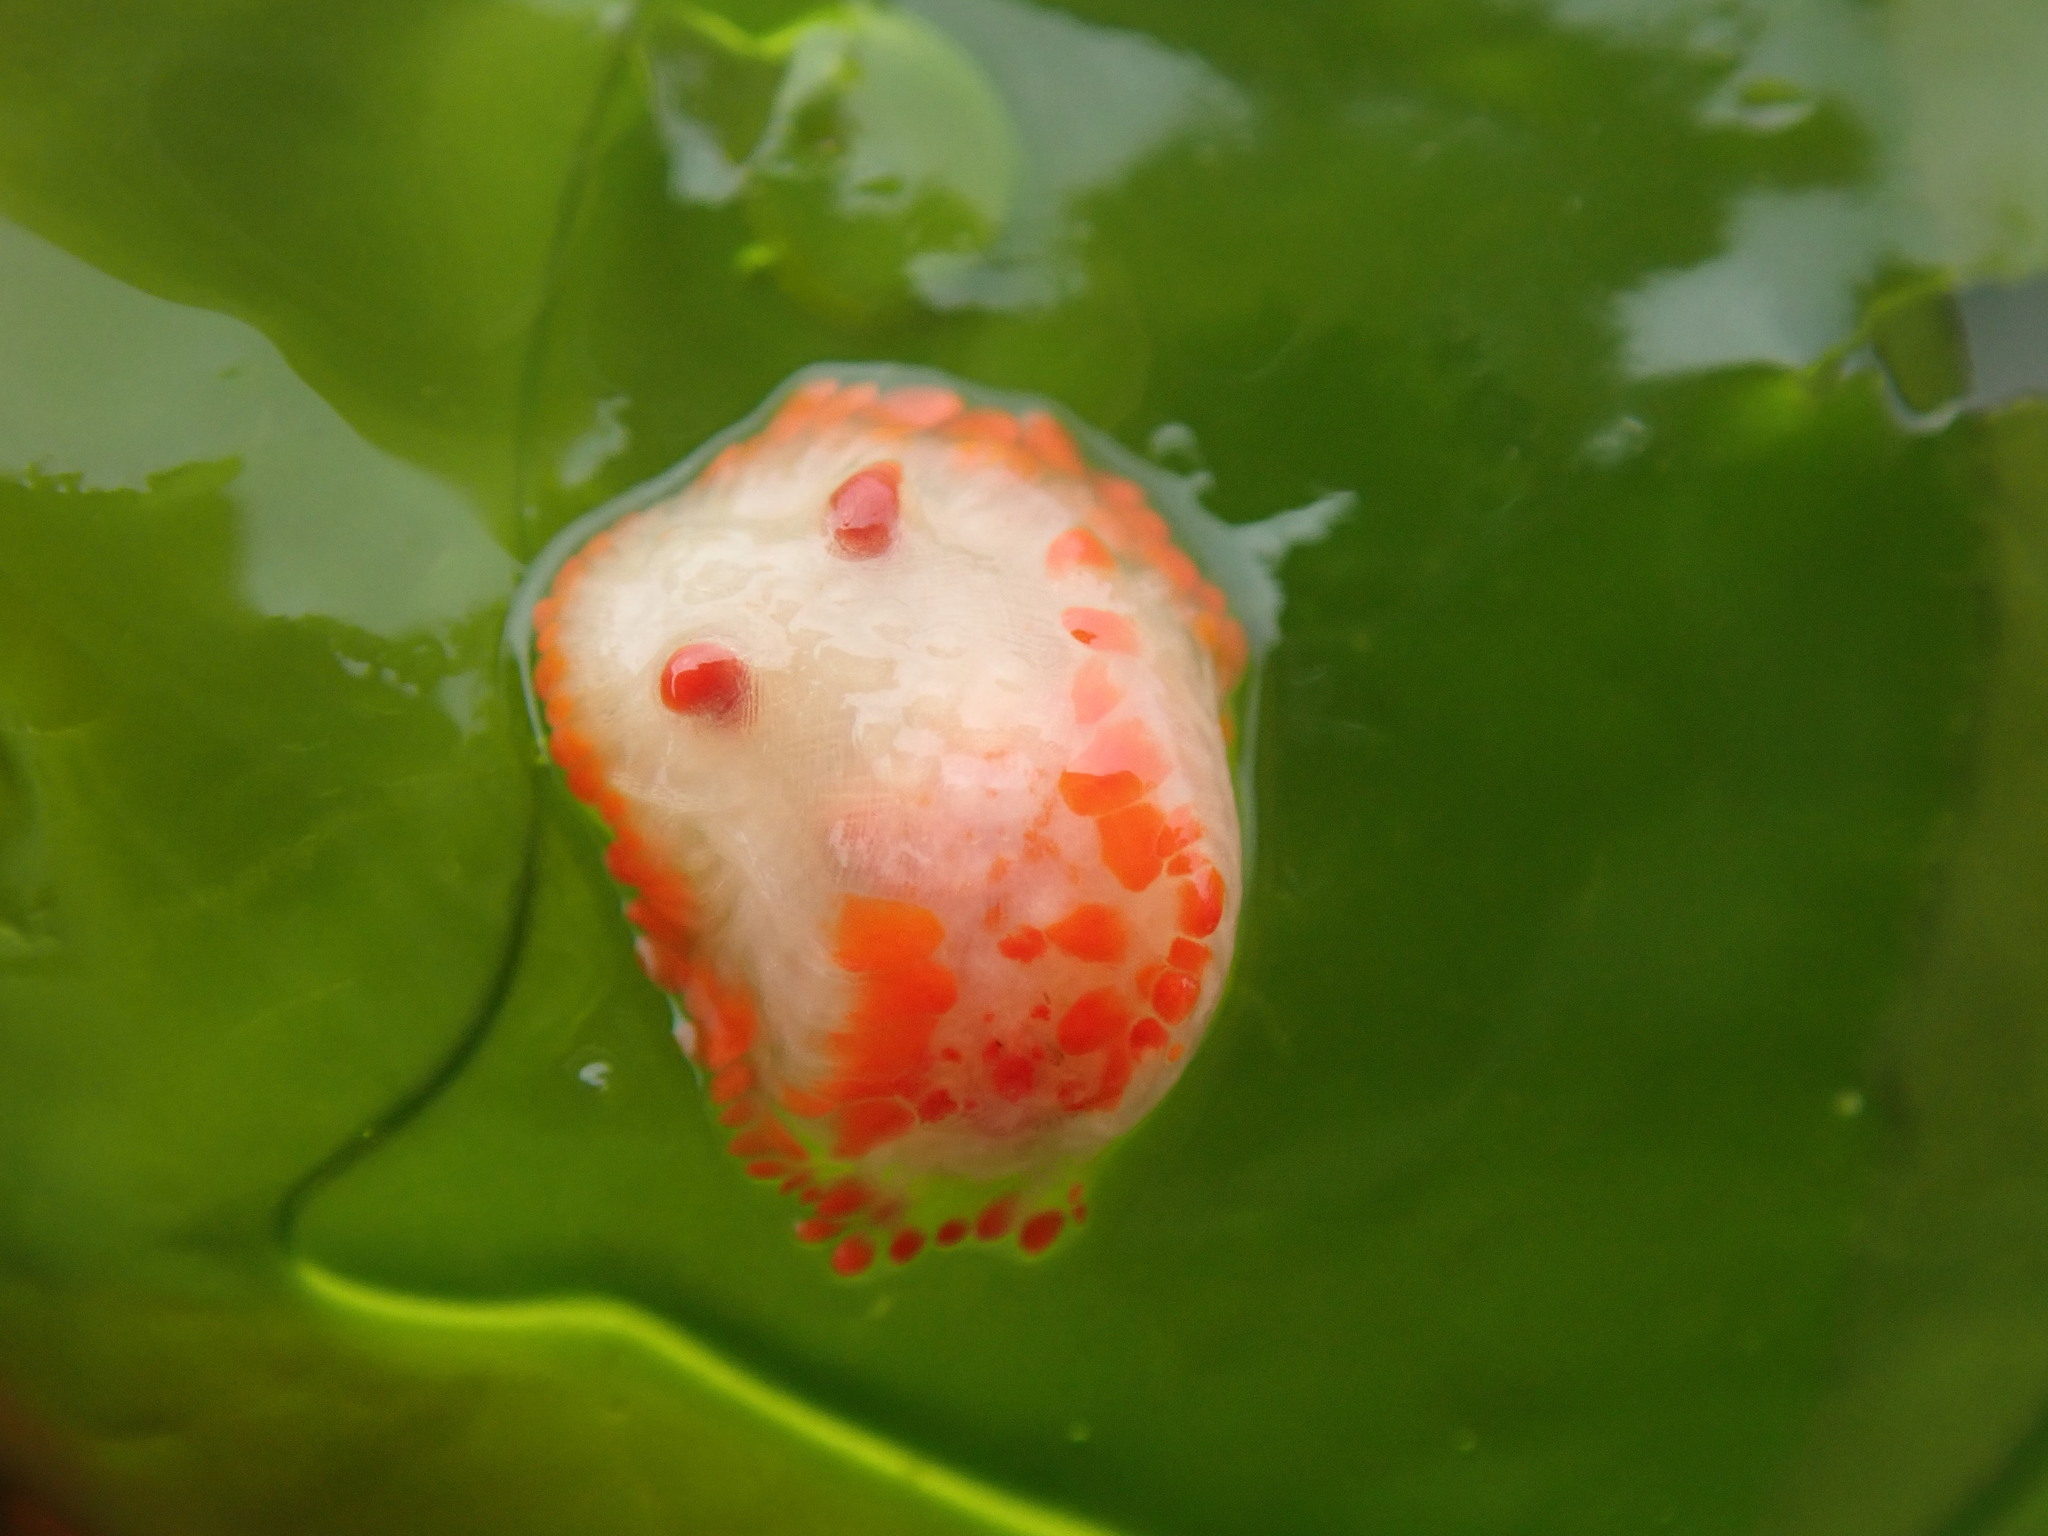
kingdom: Animalia
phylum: Mollusca
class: Gastropoda
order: Nudibranchia
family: Polyceridae
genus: Limacia
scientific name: Limacia cockerelli
